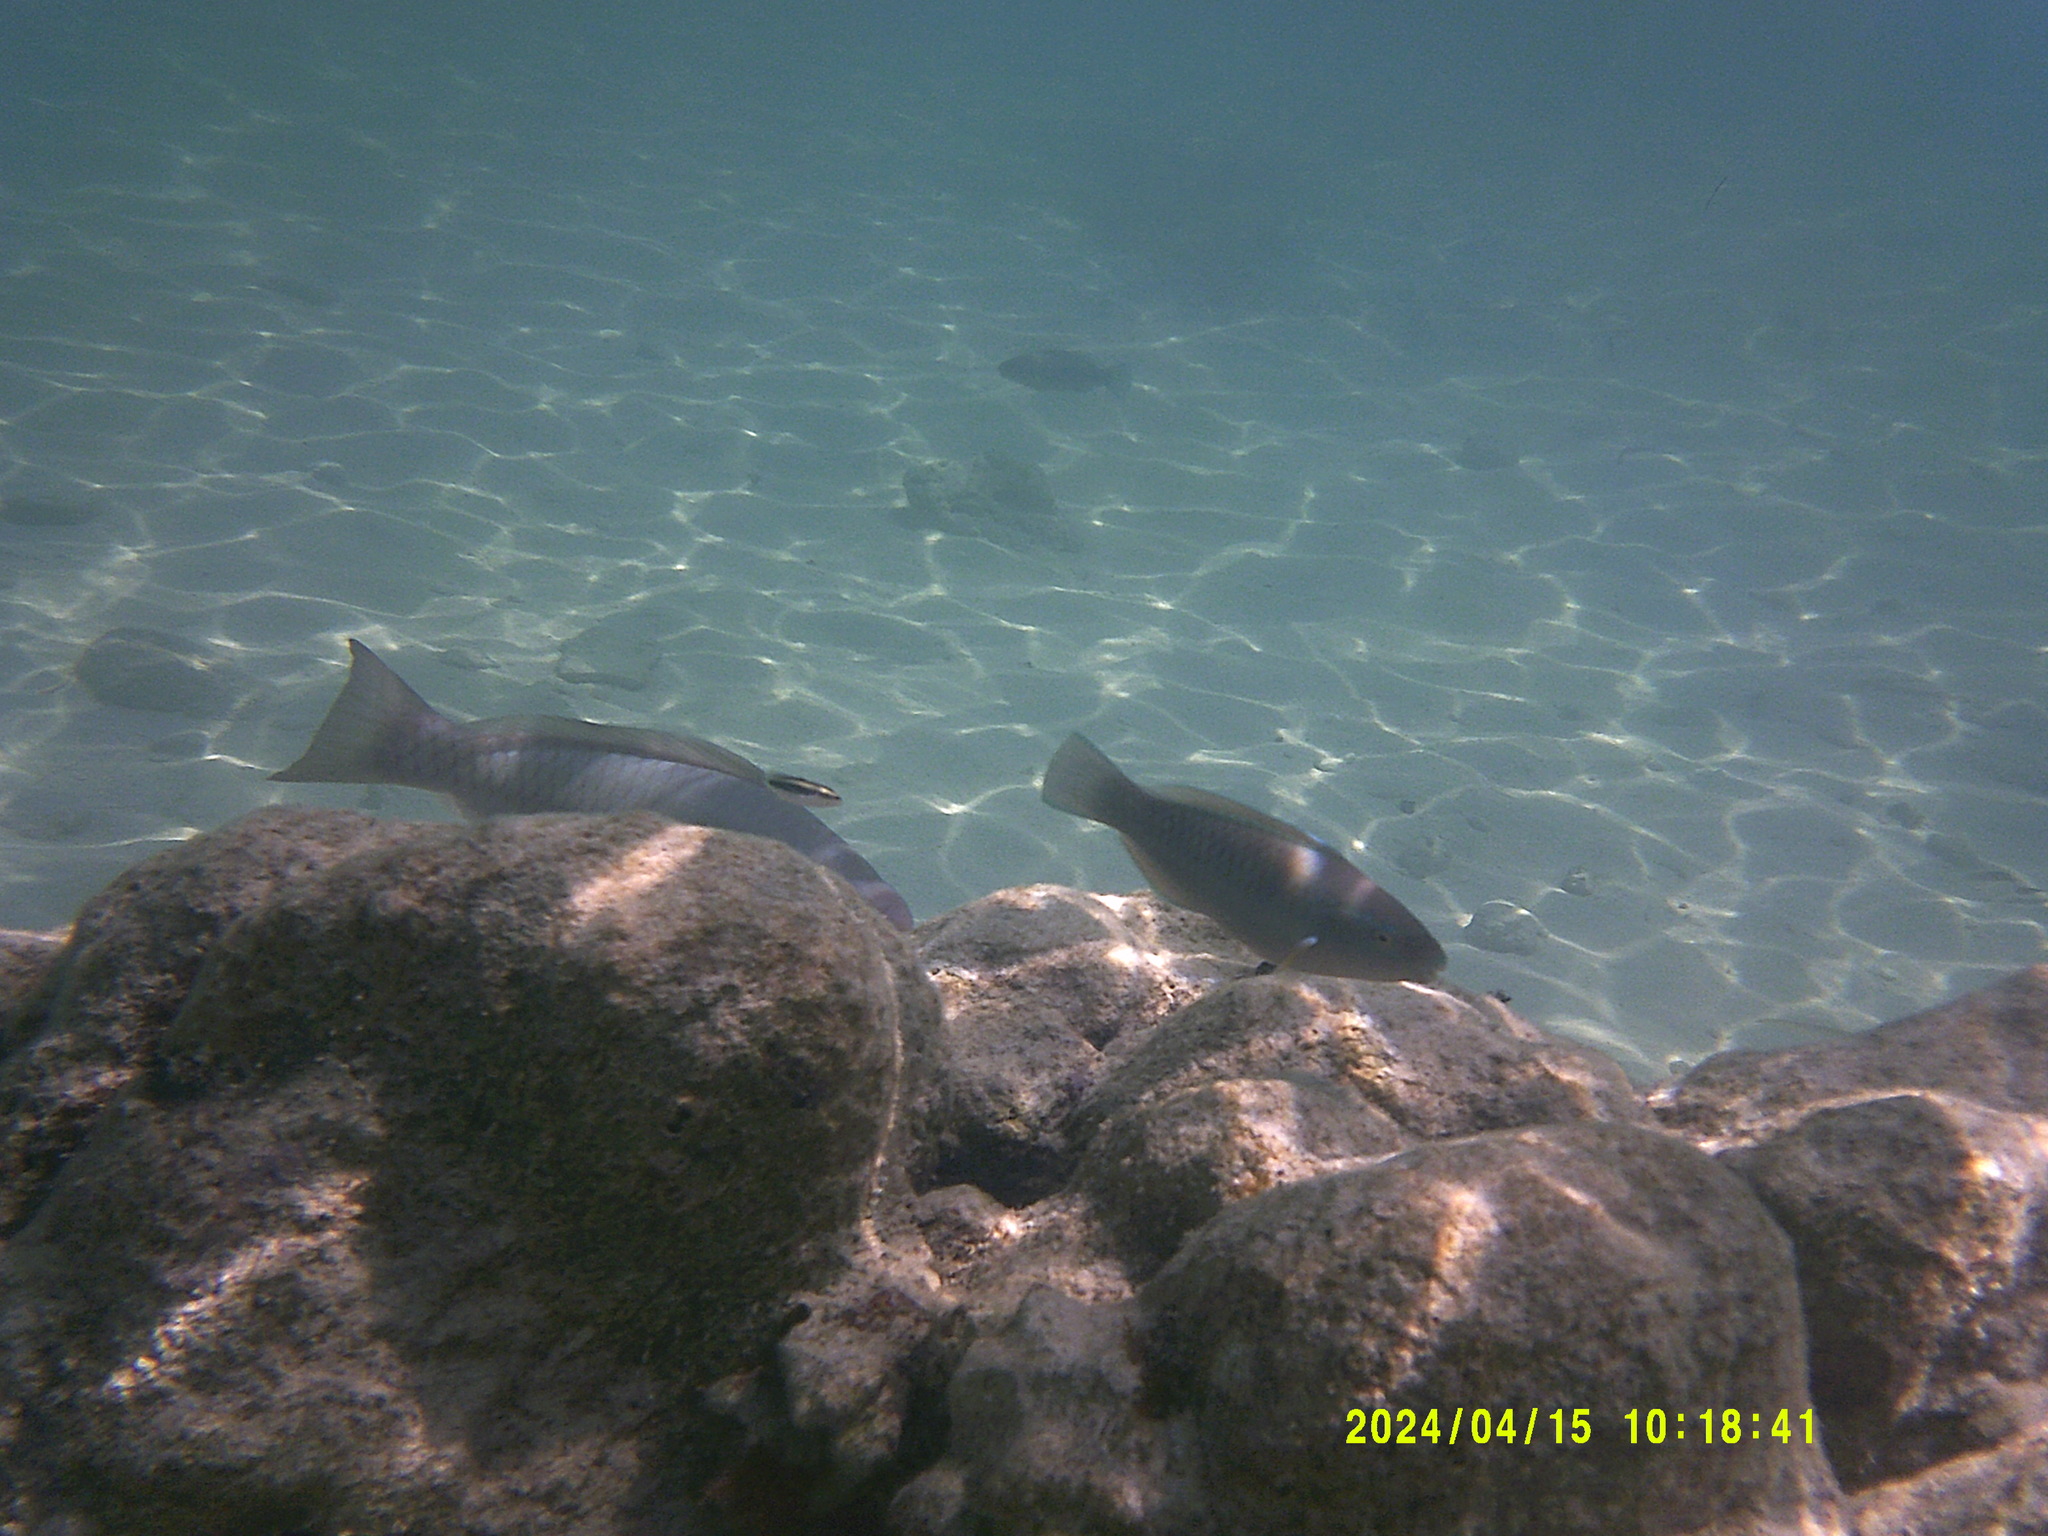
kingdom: Animalia
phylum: Chordata
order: Perciformes
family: Labridae
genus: Thalassoma
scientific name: Thalassoma bifasciatum
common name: Bluehead wrasse
